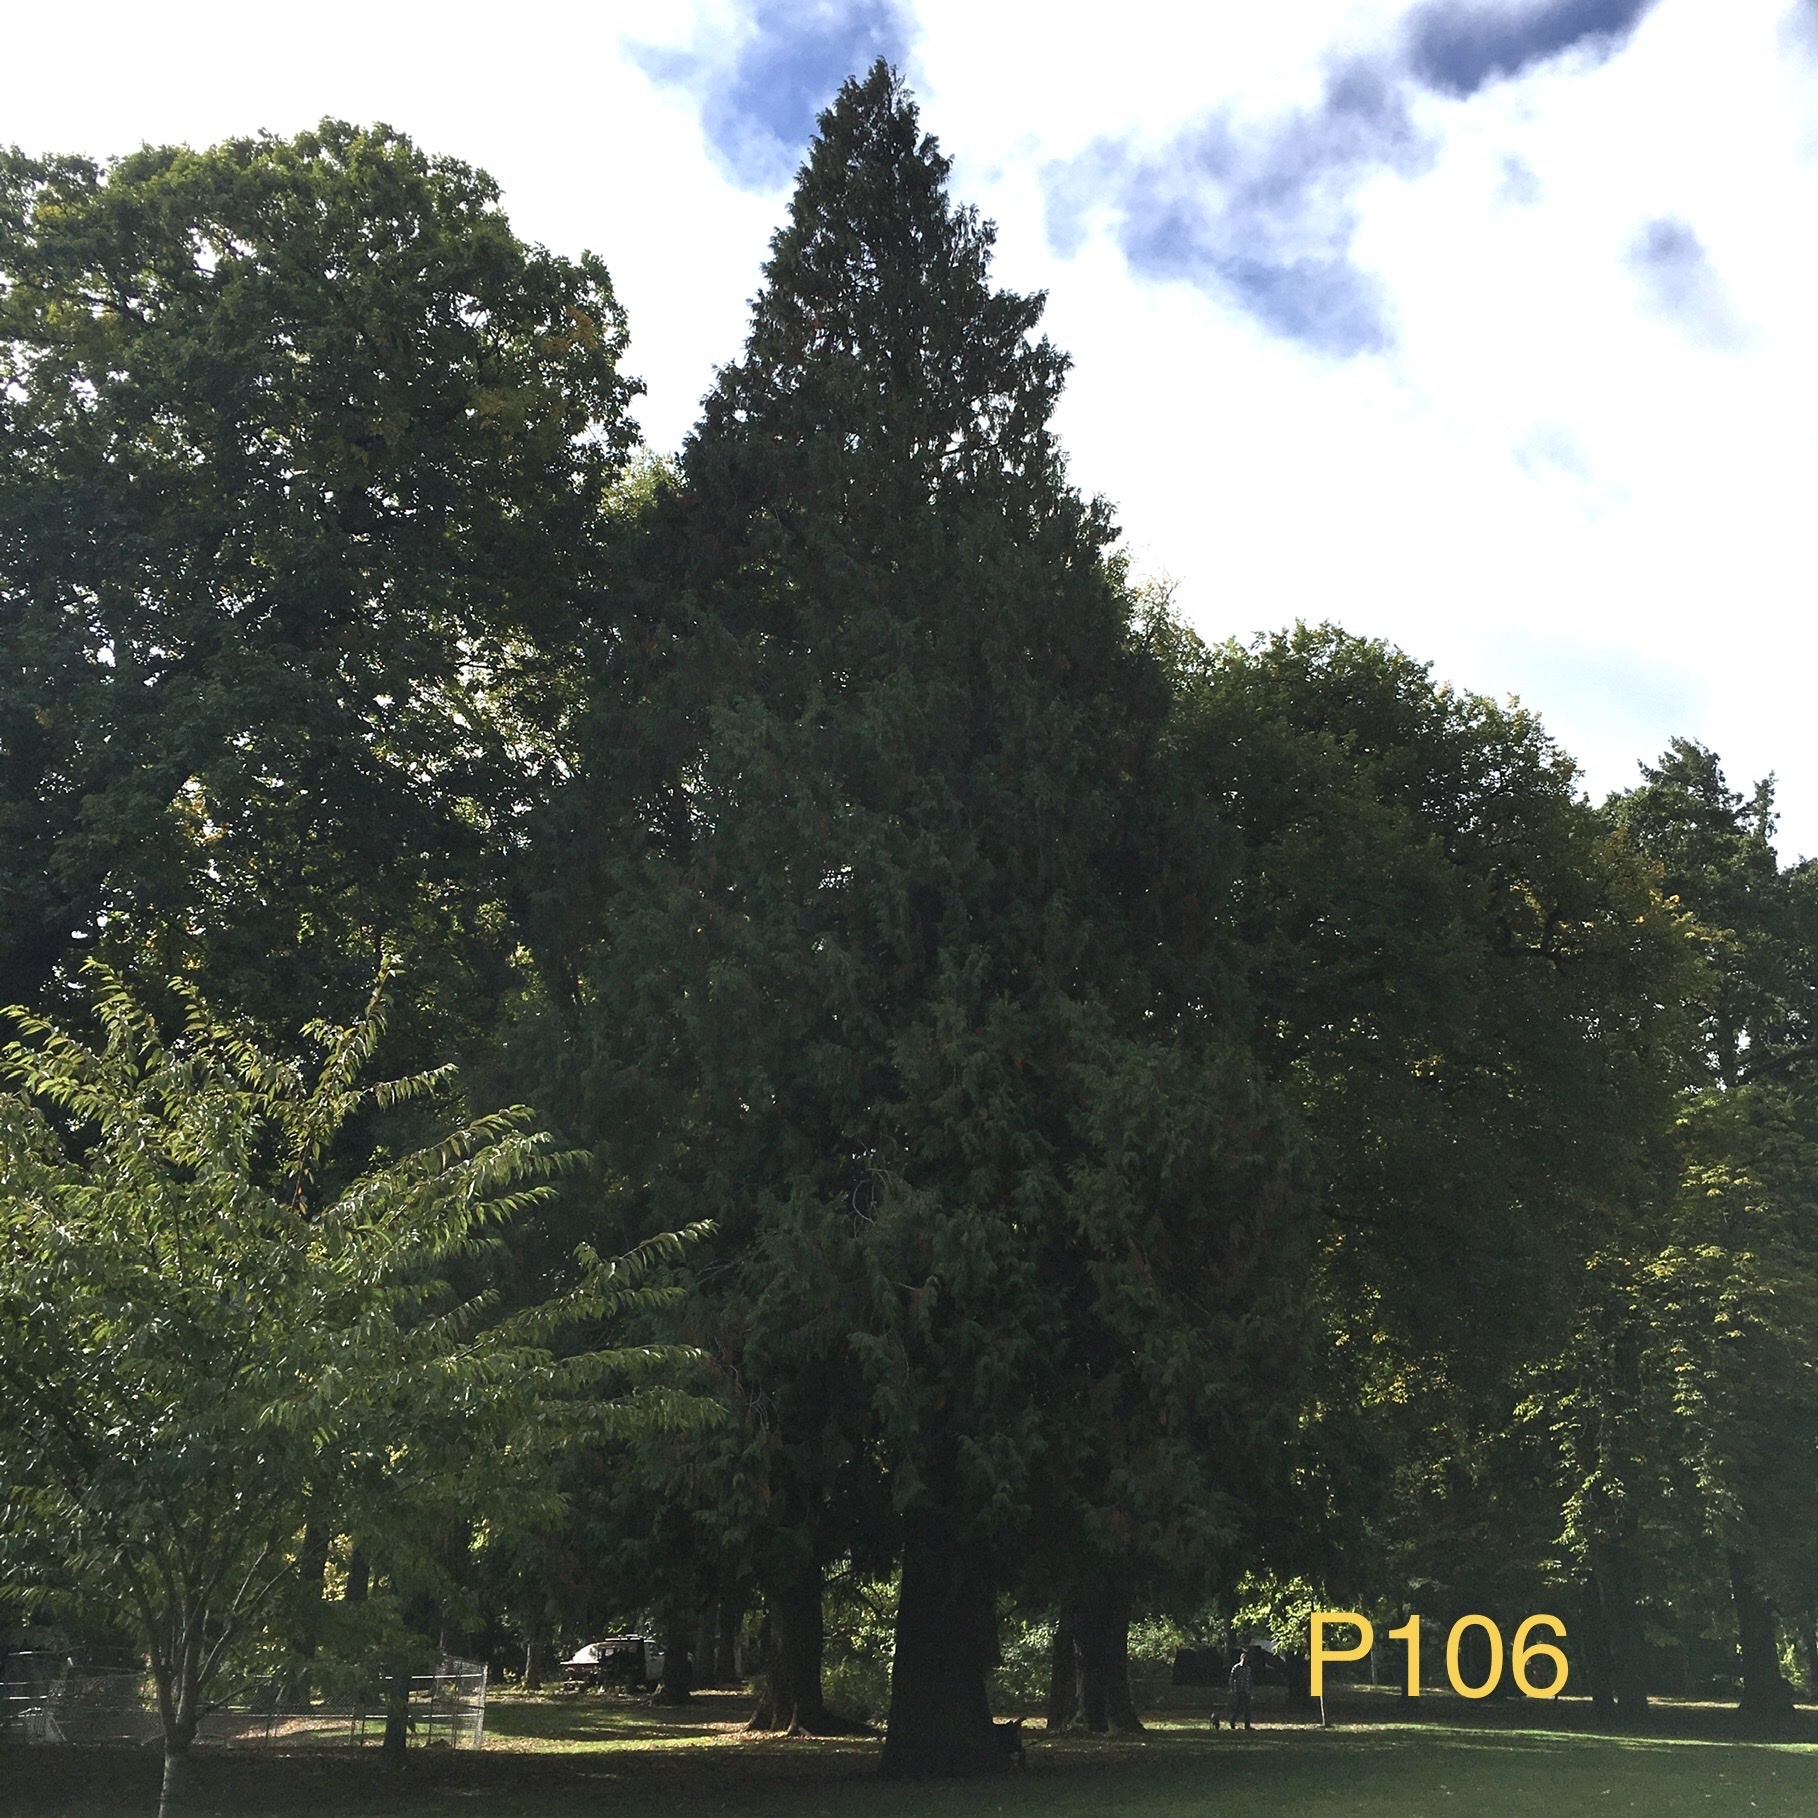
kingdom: Plantae
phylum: Tracheophyta
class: Pinopsida
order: Pinales
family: Cupressaceae
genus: Thuja
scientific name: Thuja plicata
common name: Western red-cedar
